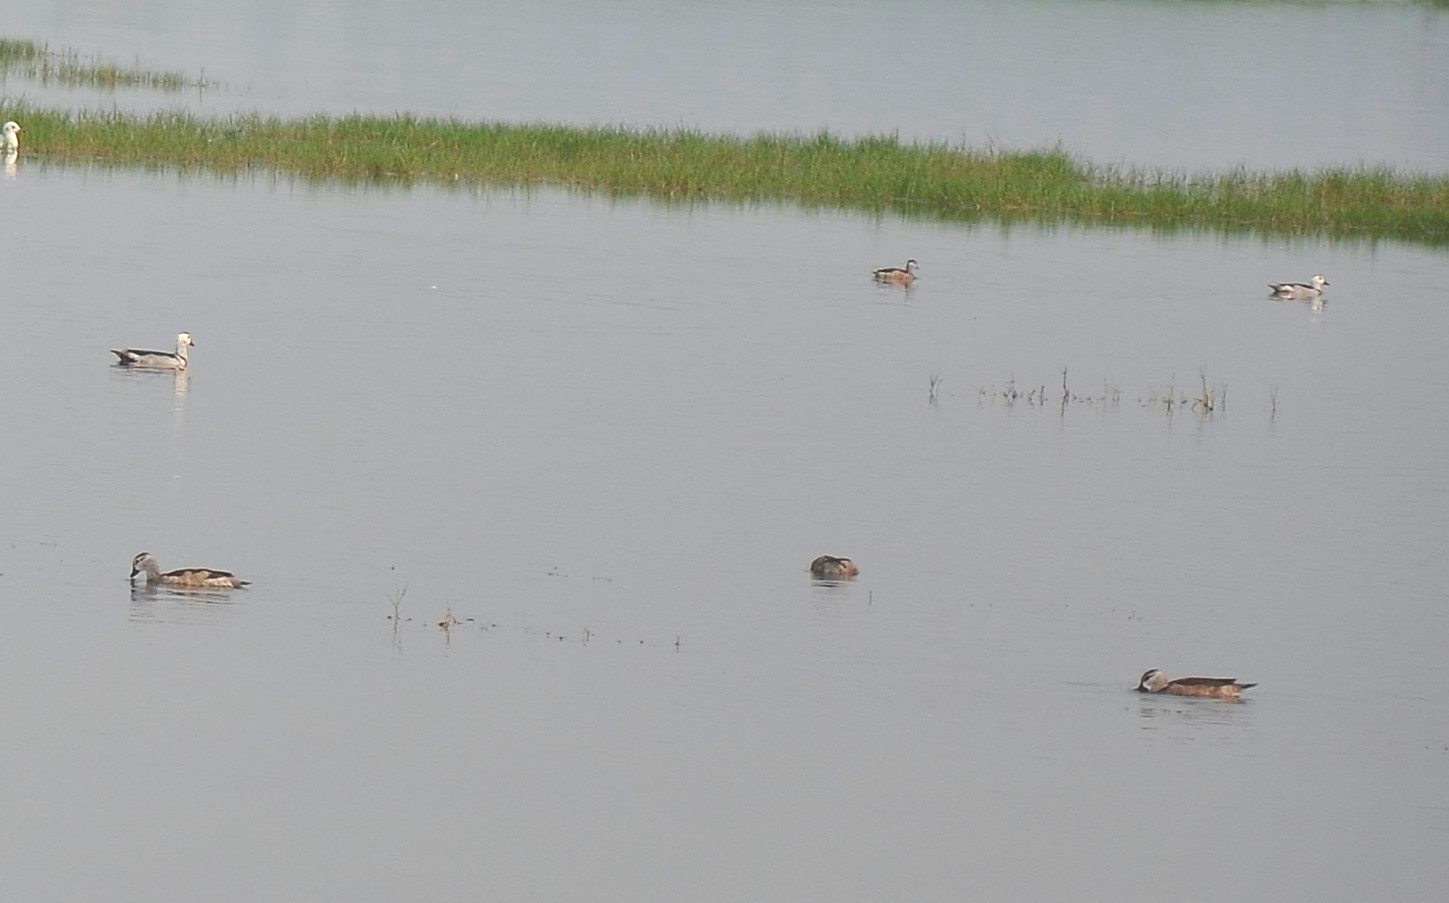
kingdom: Animalia
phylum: Chordata
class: Aves
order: Anseriformes
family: Anatidae
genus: Nettapus
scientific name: Nettapus coromandelianus
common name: Cotton pygmy-goose
